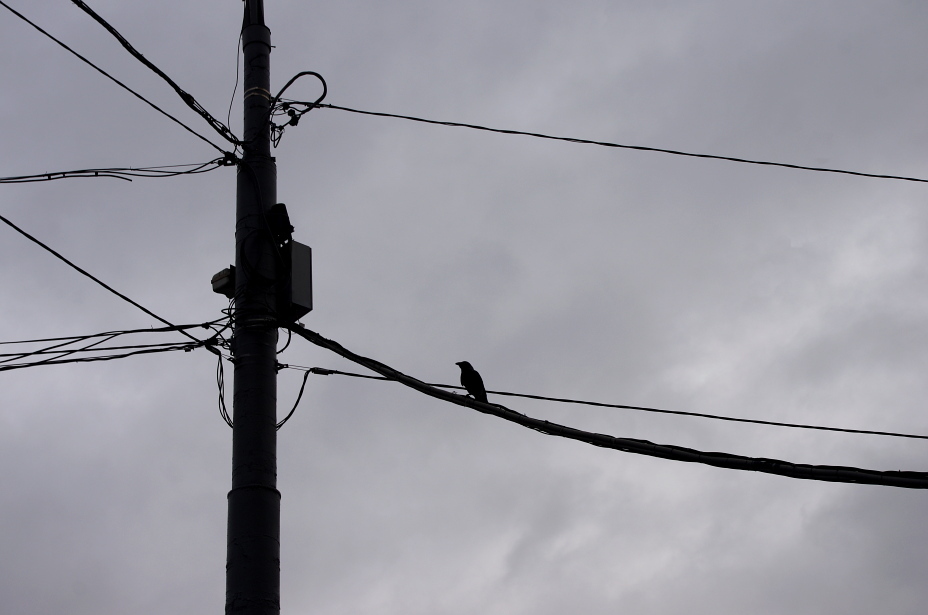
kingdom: Animalia
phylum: Chordata
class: Aves
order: Passeriformes
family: Corvidae
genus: Corvus
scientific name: Corvus cornix
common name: Hooded crow
